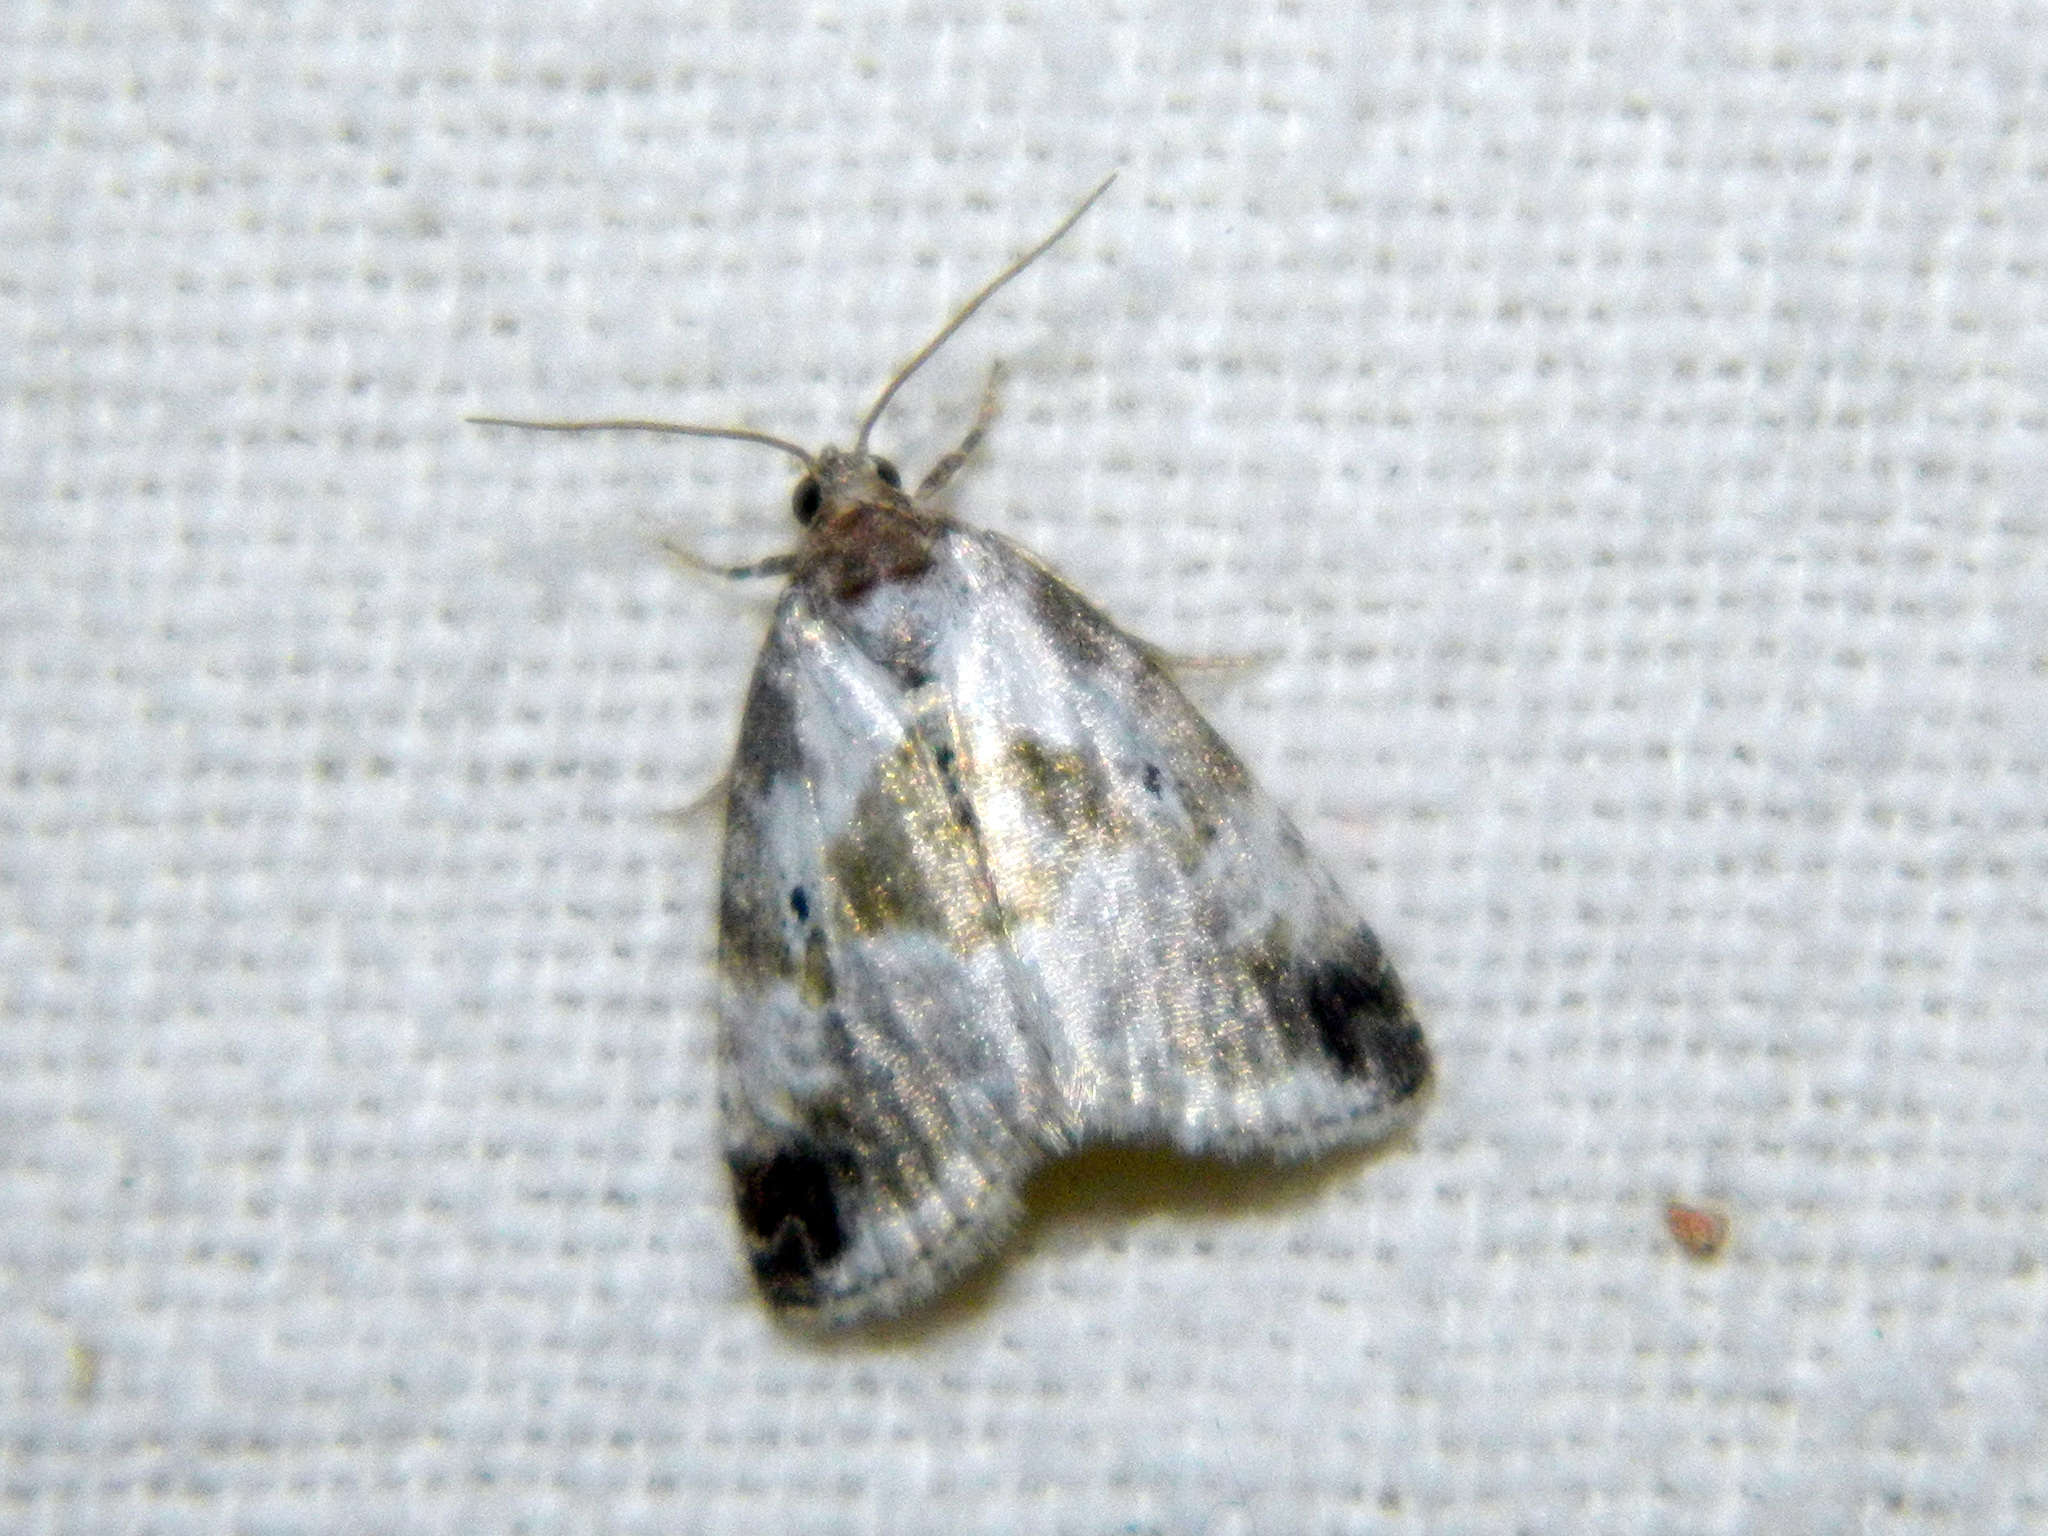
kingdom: Animalia
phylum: Arthropoda
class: Insecta
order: Lepidoptera
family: Noctuidae
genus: Maliattha
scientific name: Maliattha synochitis
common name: Black-dotted glyph
